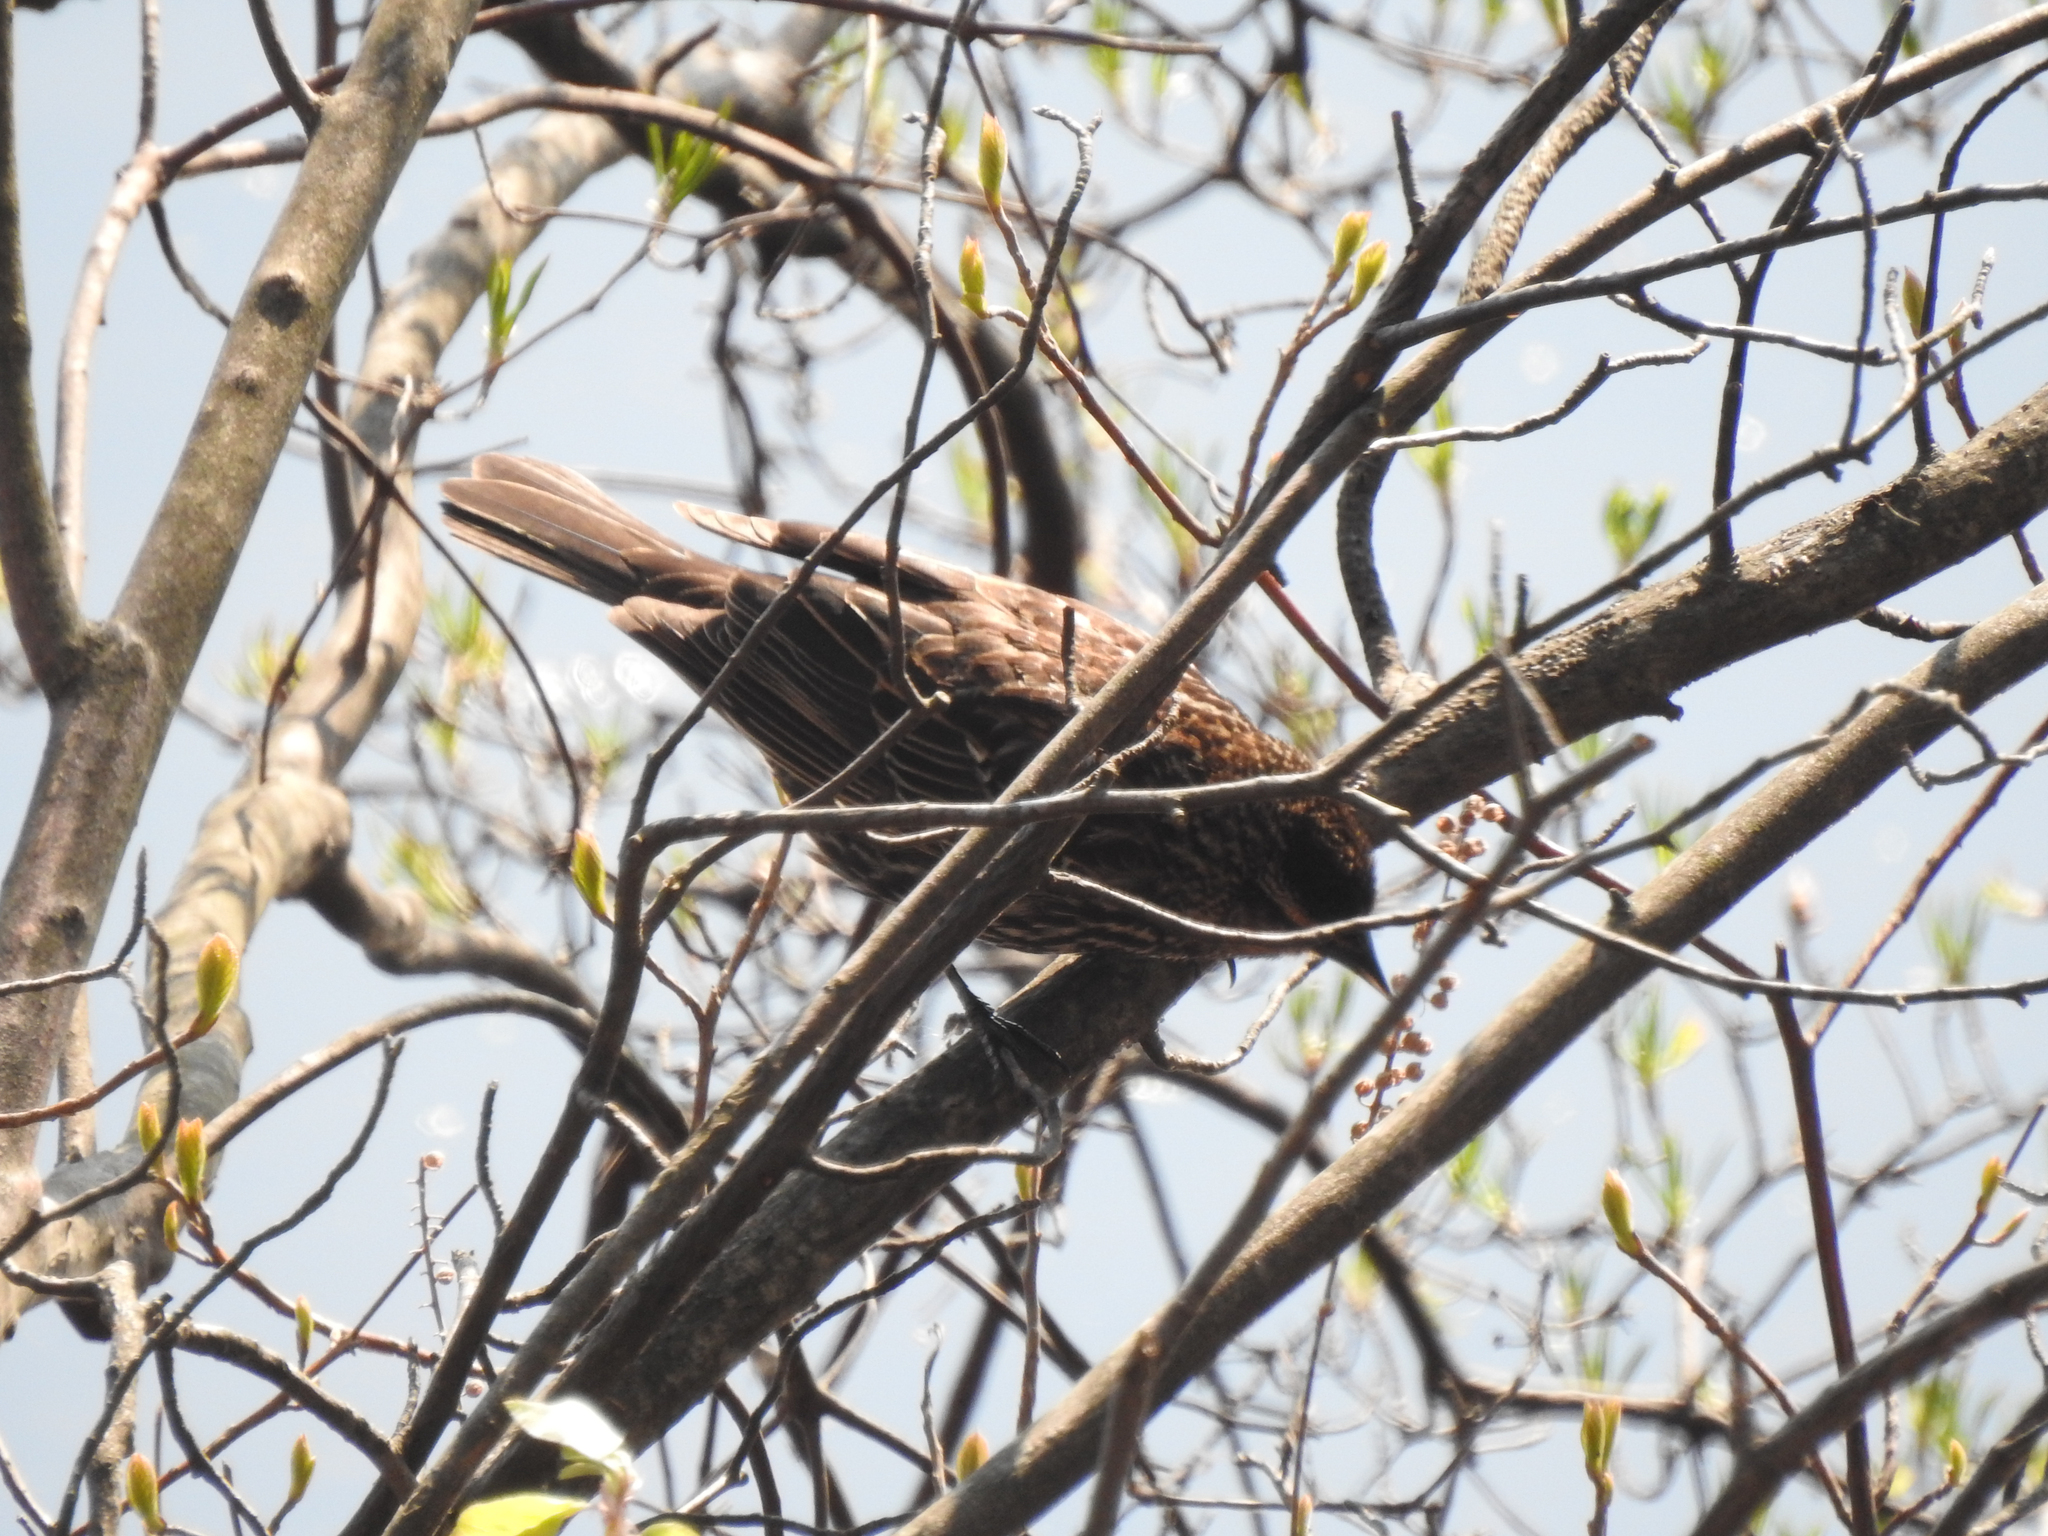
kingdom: Animalia
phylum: Chordata
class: Aves
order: Passeriformes
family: Icteridae
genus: Agelaius
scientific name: Agelaius phoeniceus
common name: Red-winged blackbird
